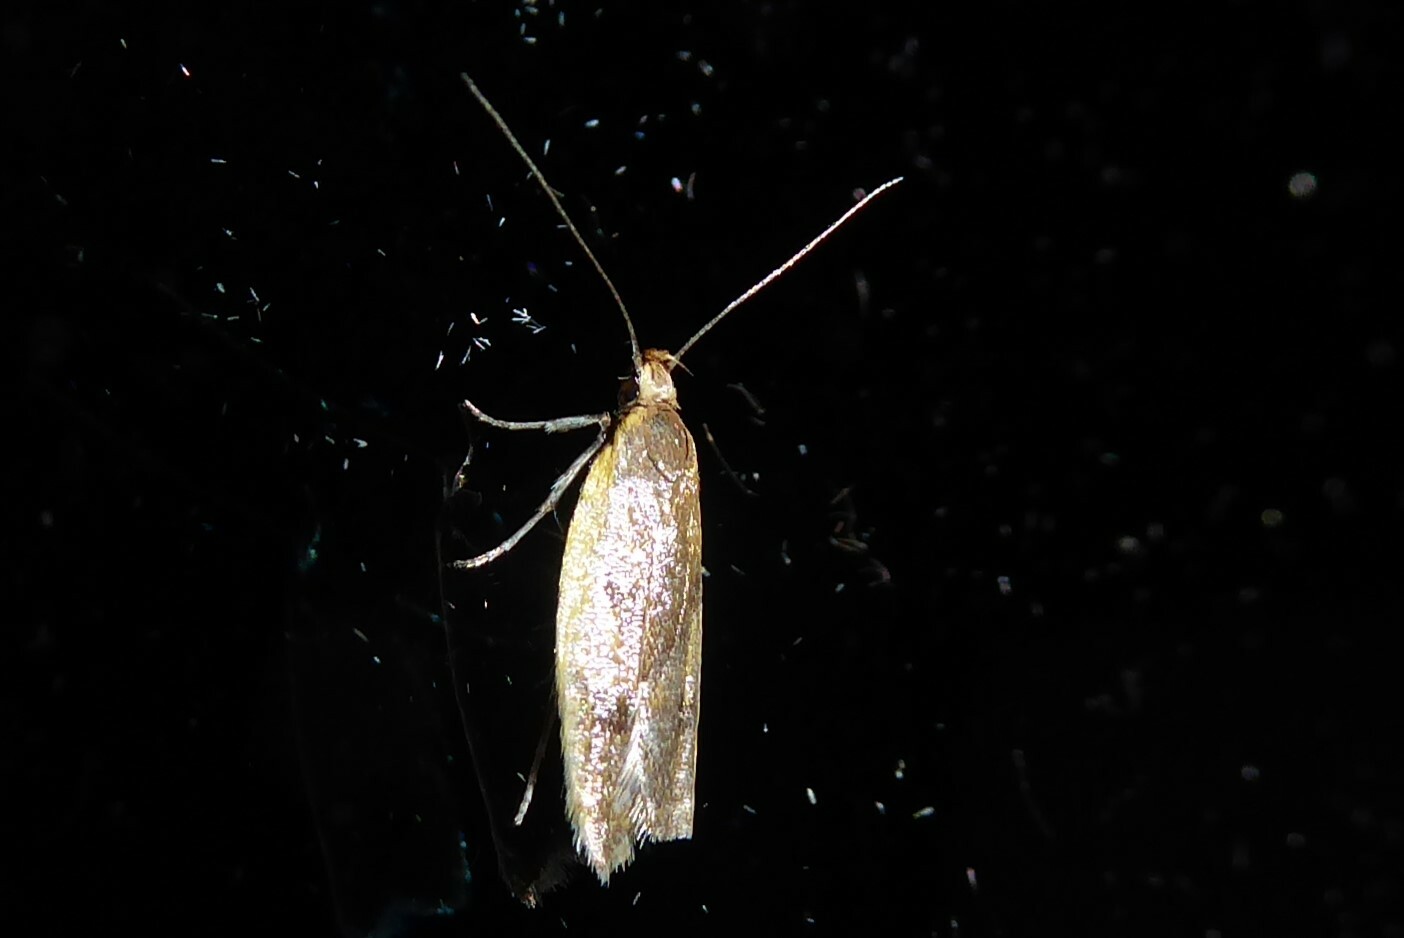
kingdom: Animalia
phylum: Arthropoda
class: Insecta
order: Lepidoptera
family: Oecophoridae
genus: Gymnobathra
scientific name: Gymnobathra parca
